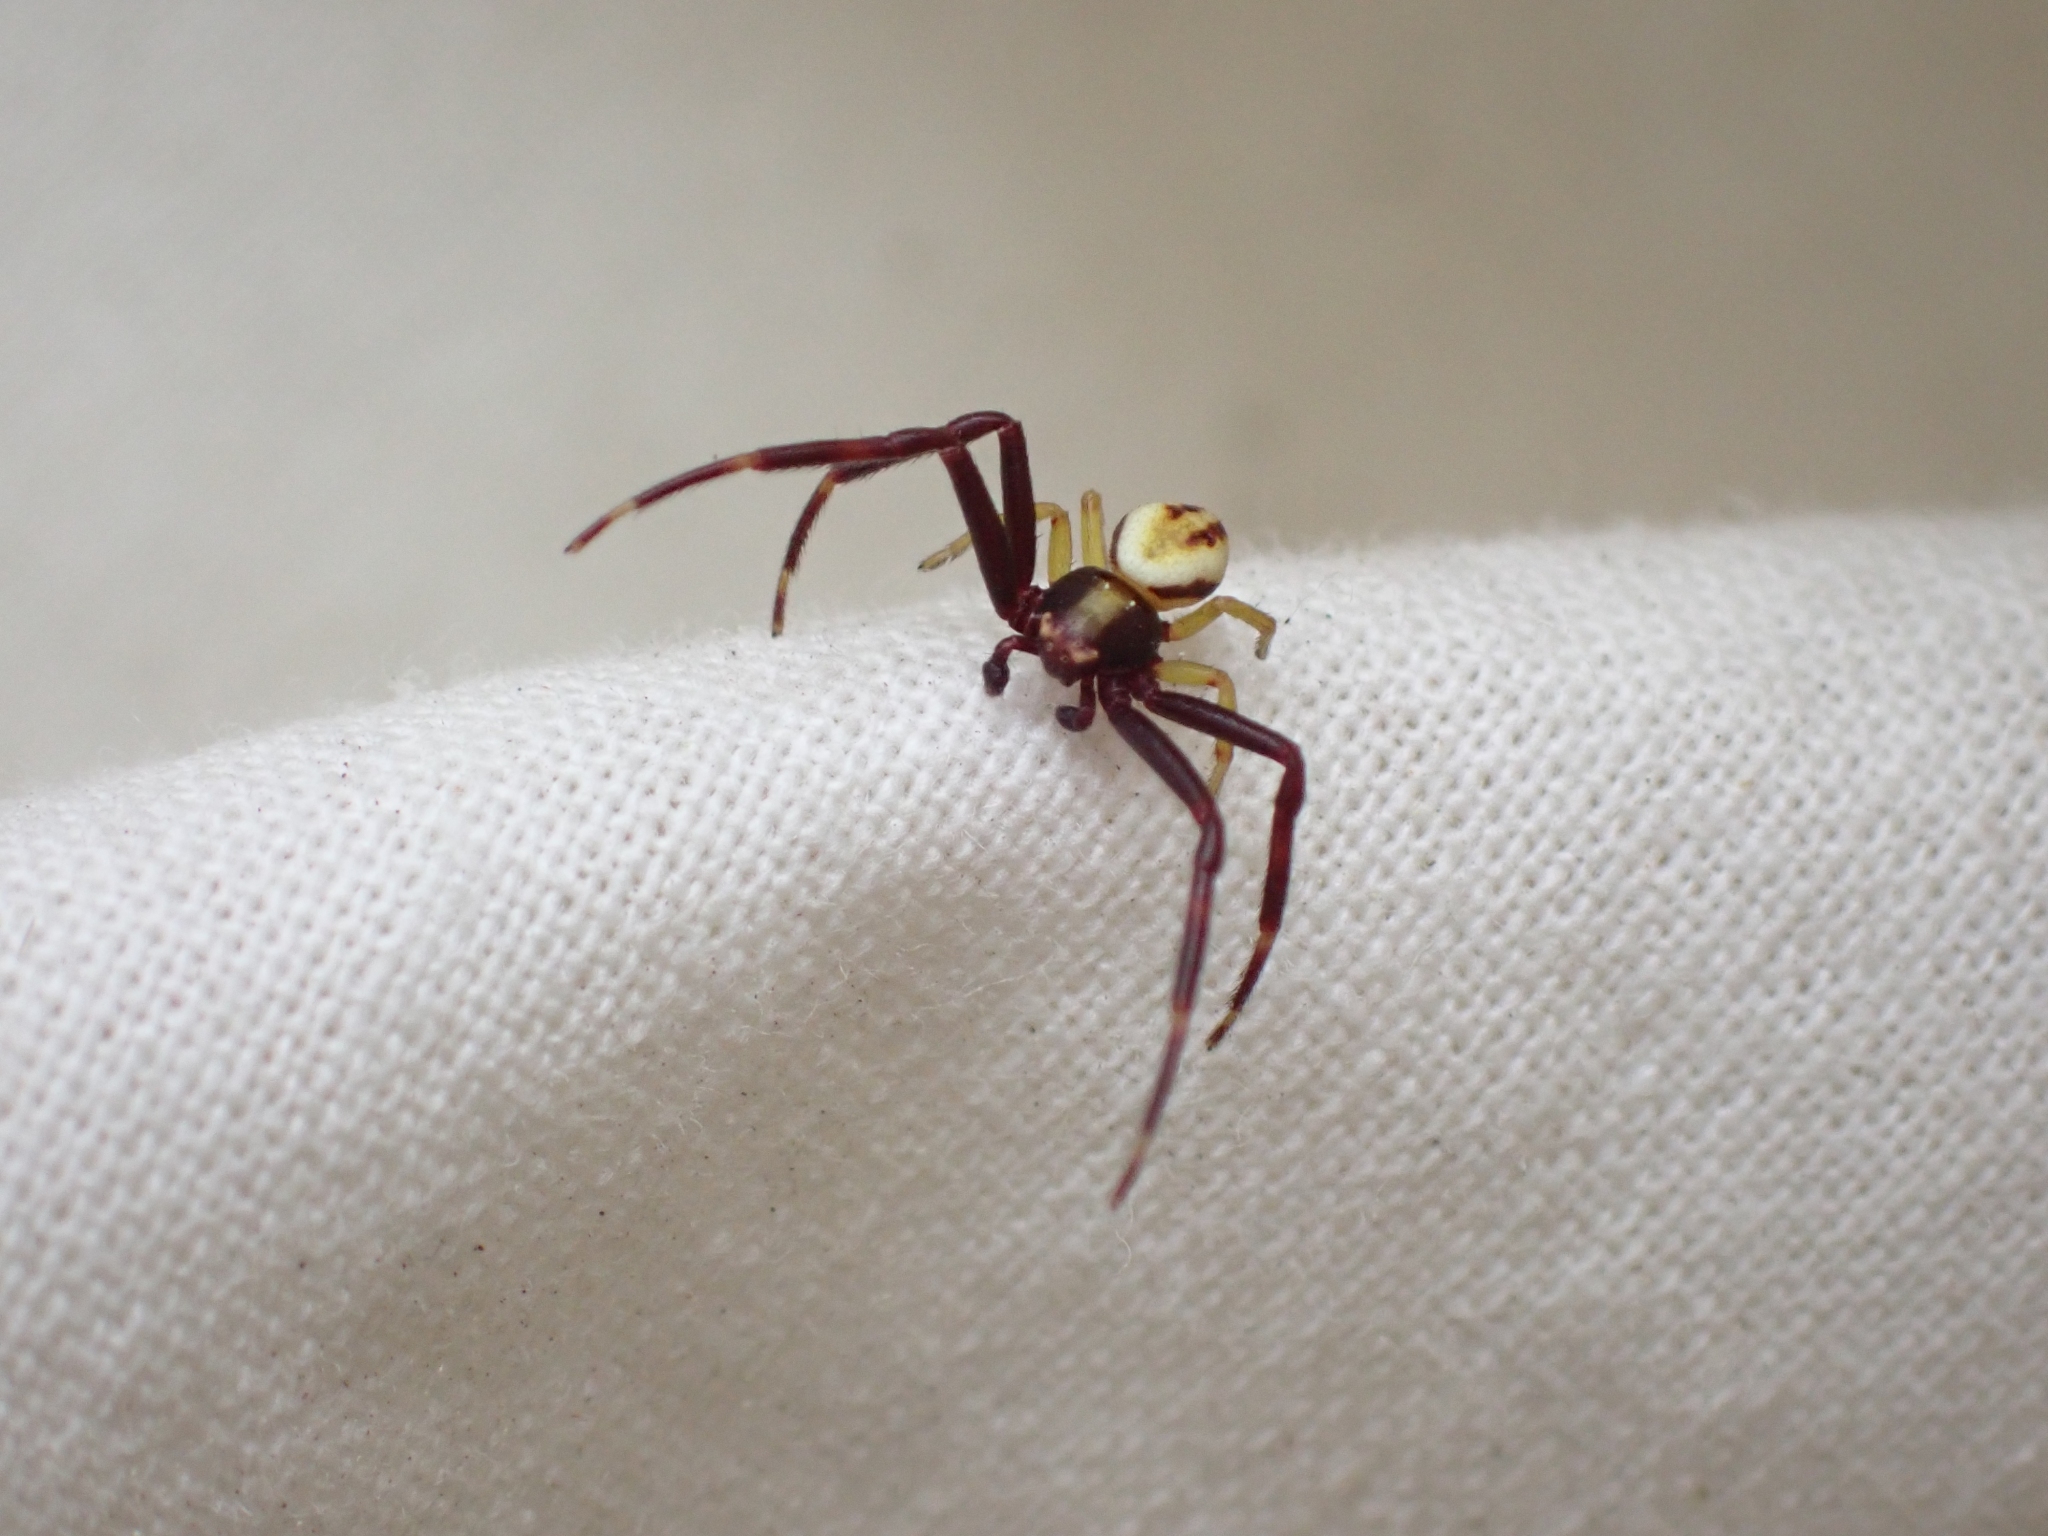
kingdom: Animalia
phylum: Arthropoda
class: Arachnida
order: Araneae
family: Thomisidae
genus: Misumena
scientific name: Misumena vatia
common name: Goldenrod crab spider
